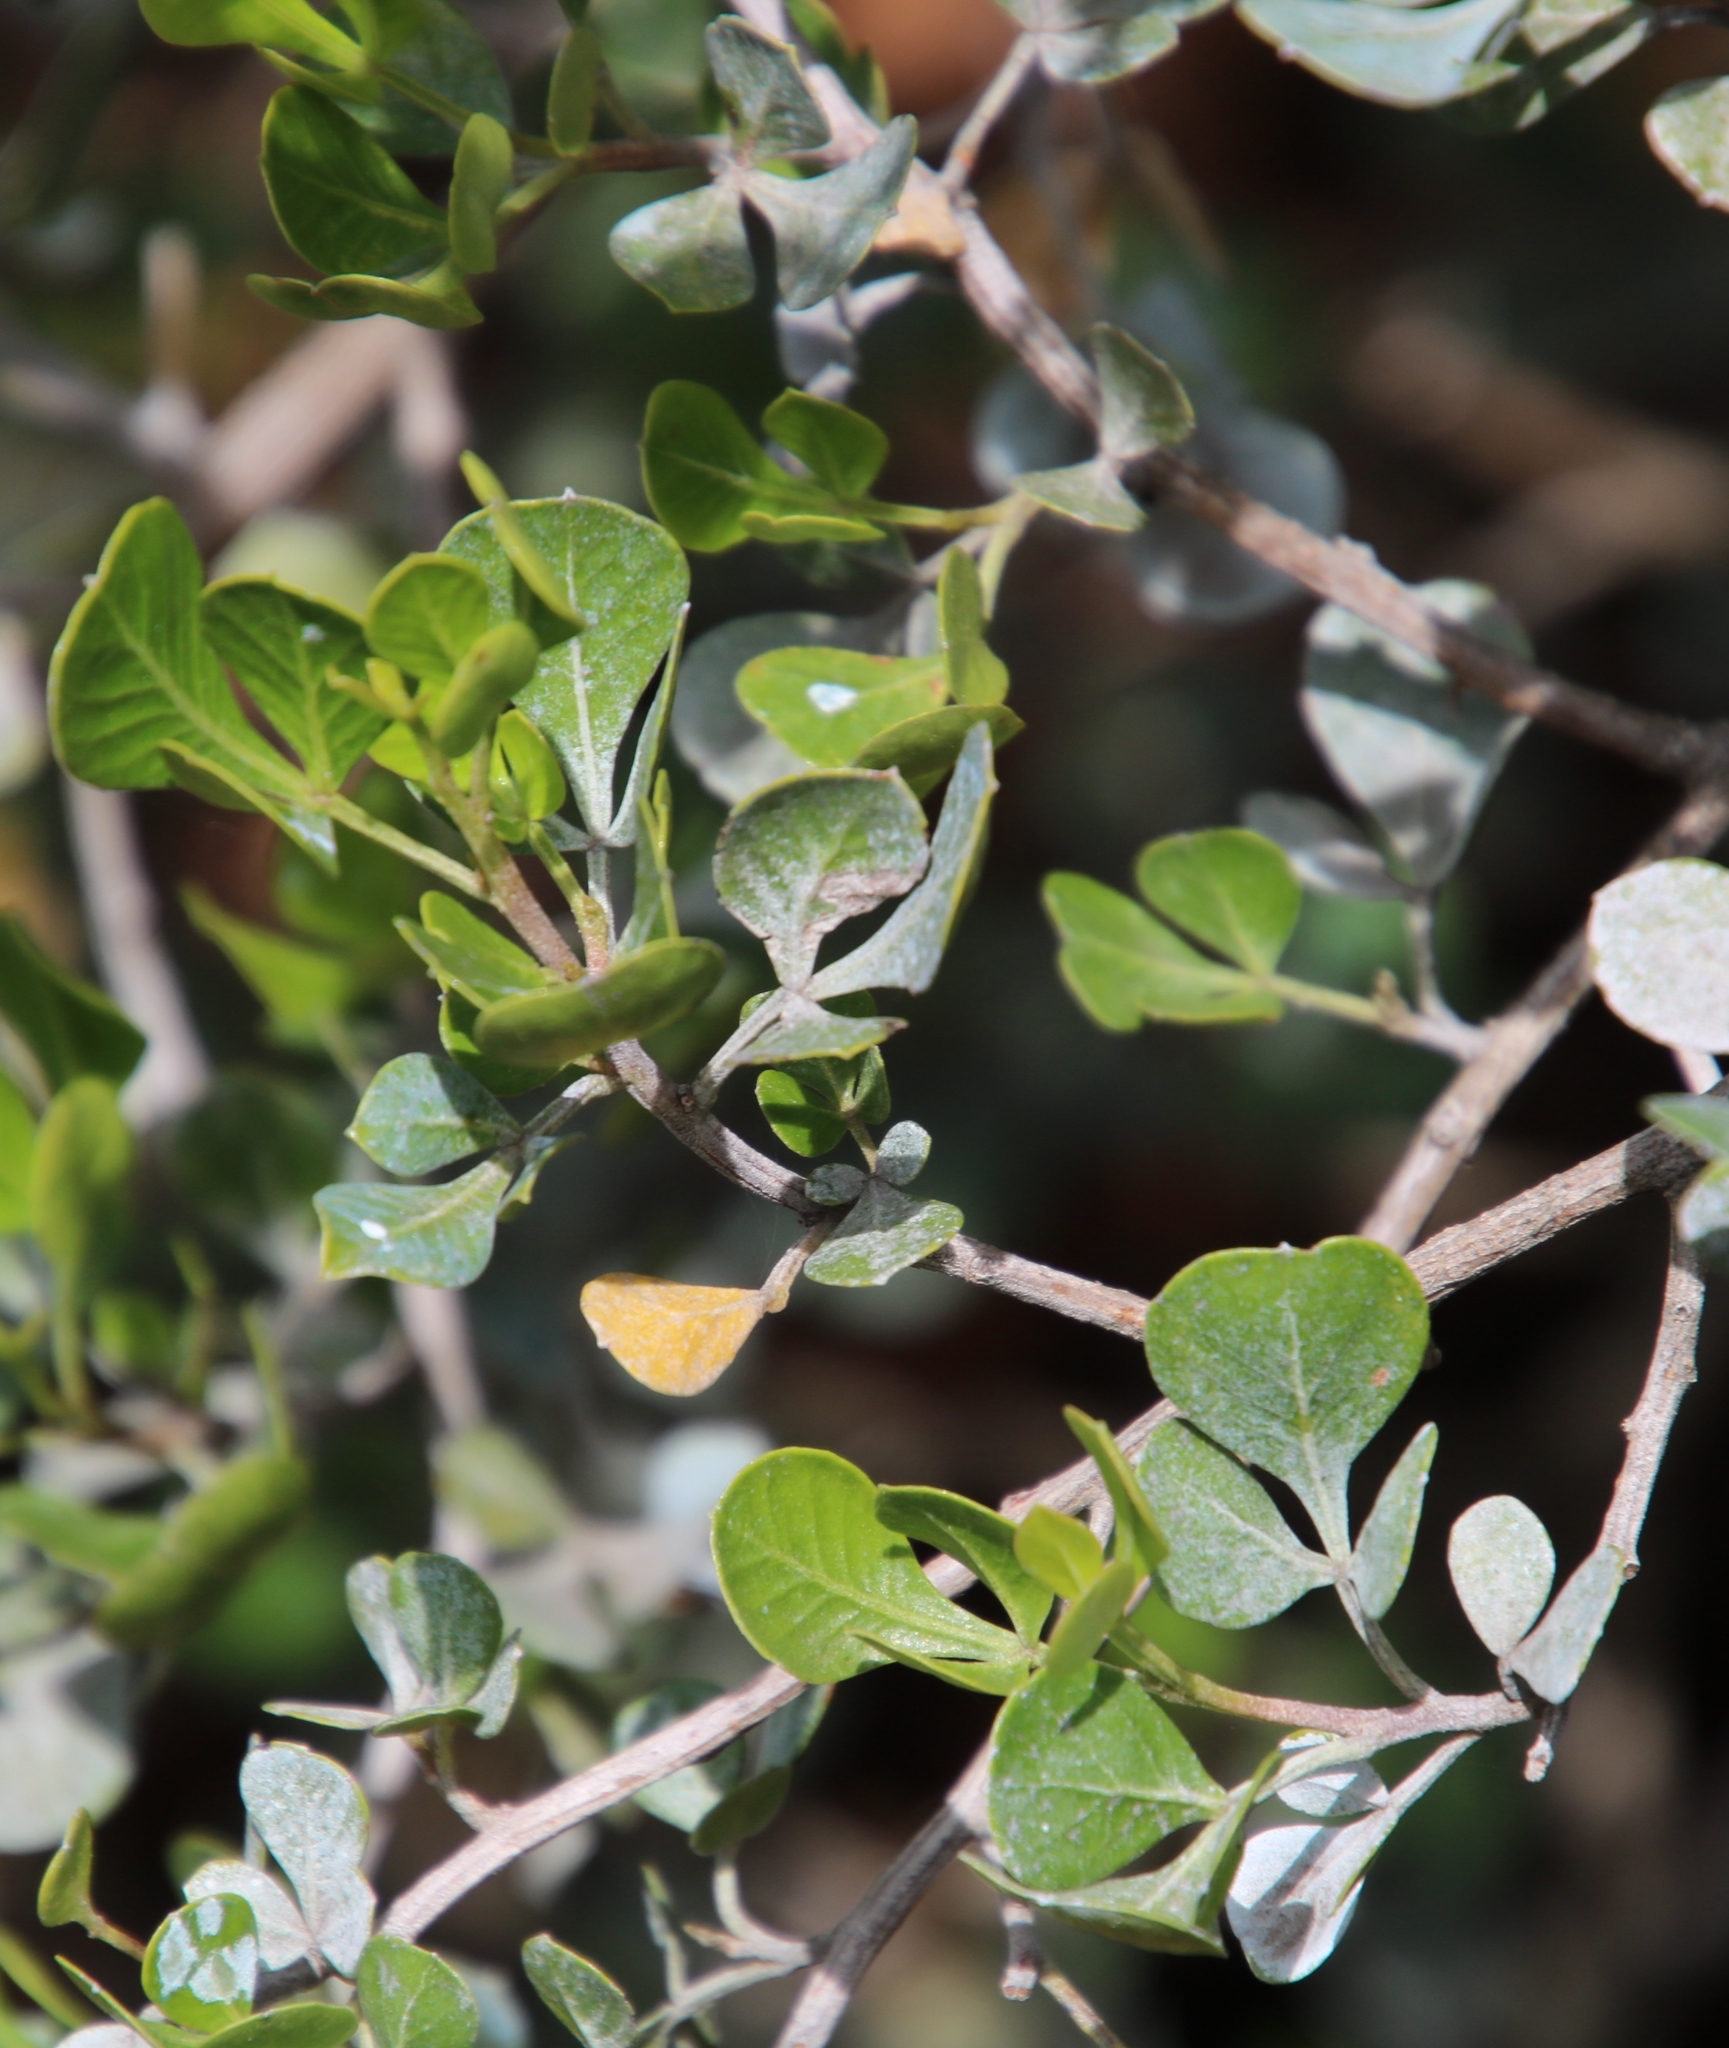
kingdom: Plantae
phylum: Tracheophyta
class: Magnoliopsida
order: Sapindales
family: Anacardiaceae
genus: Searsia
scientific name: Searsia glauca
